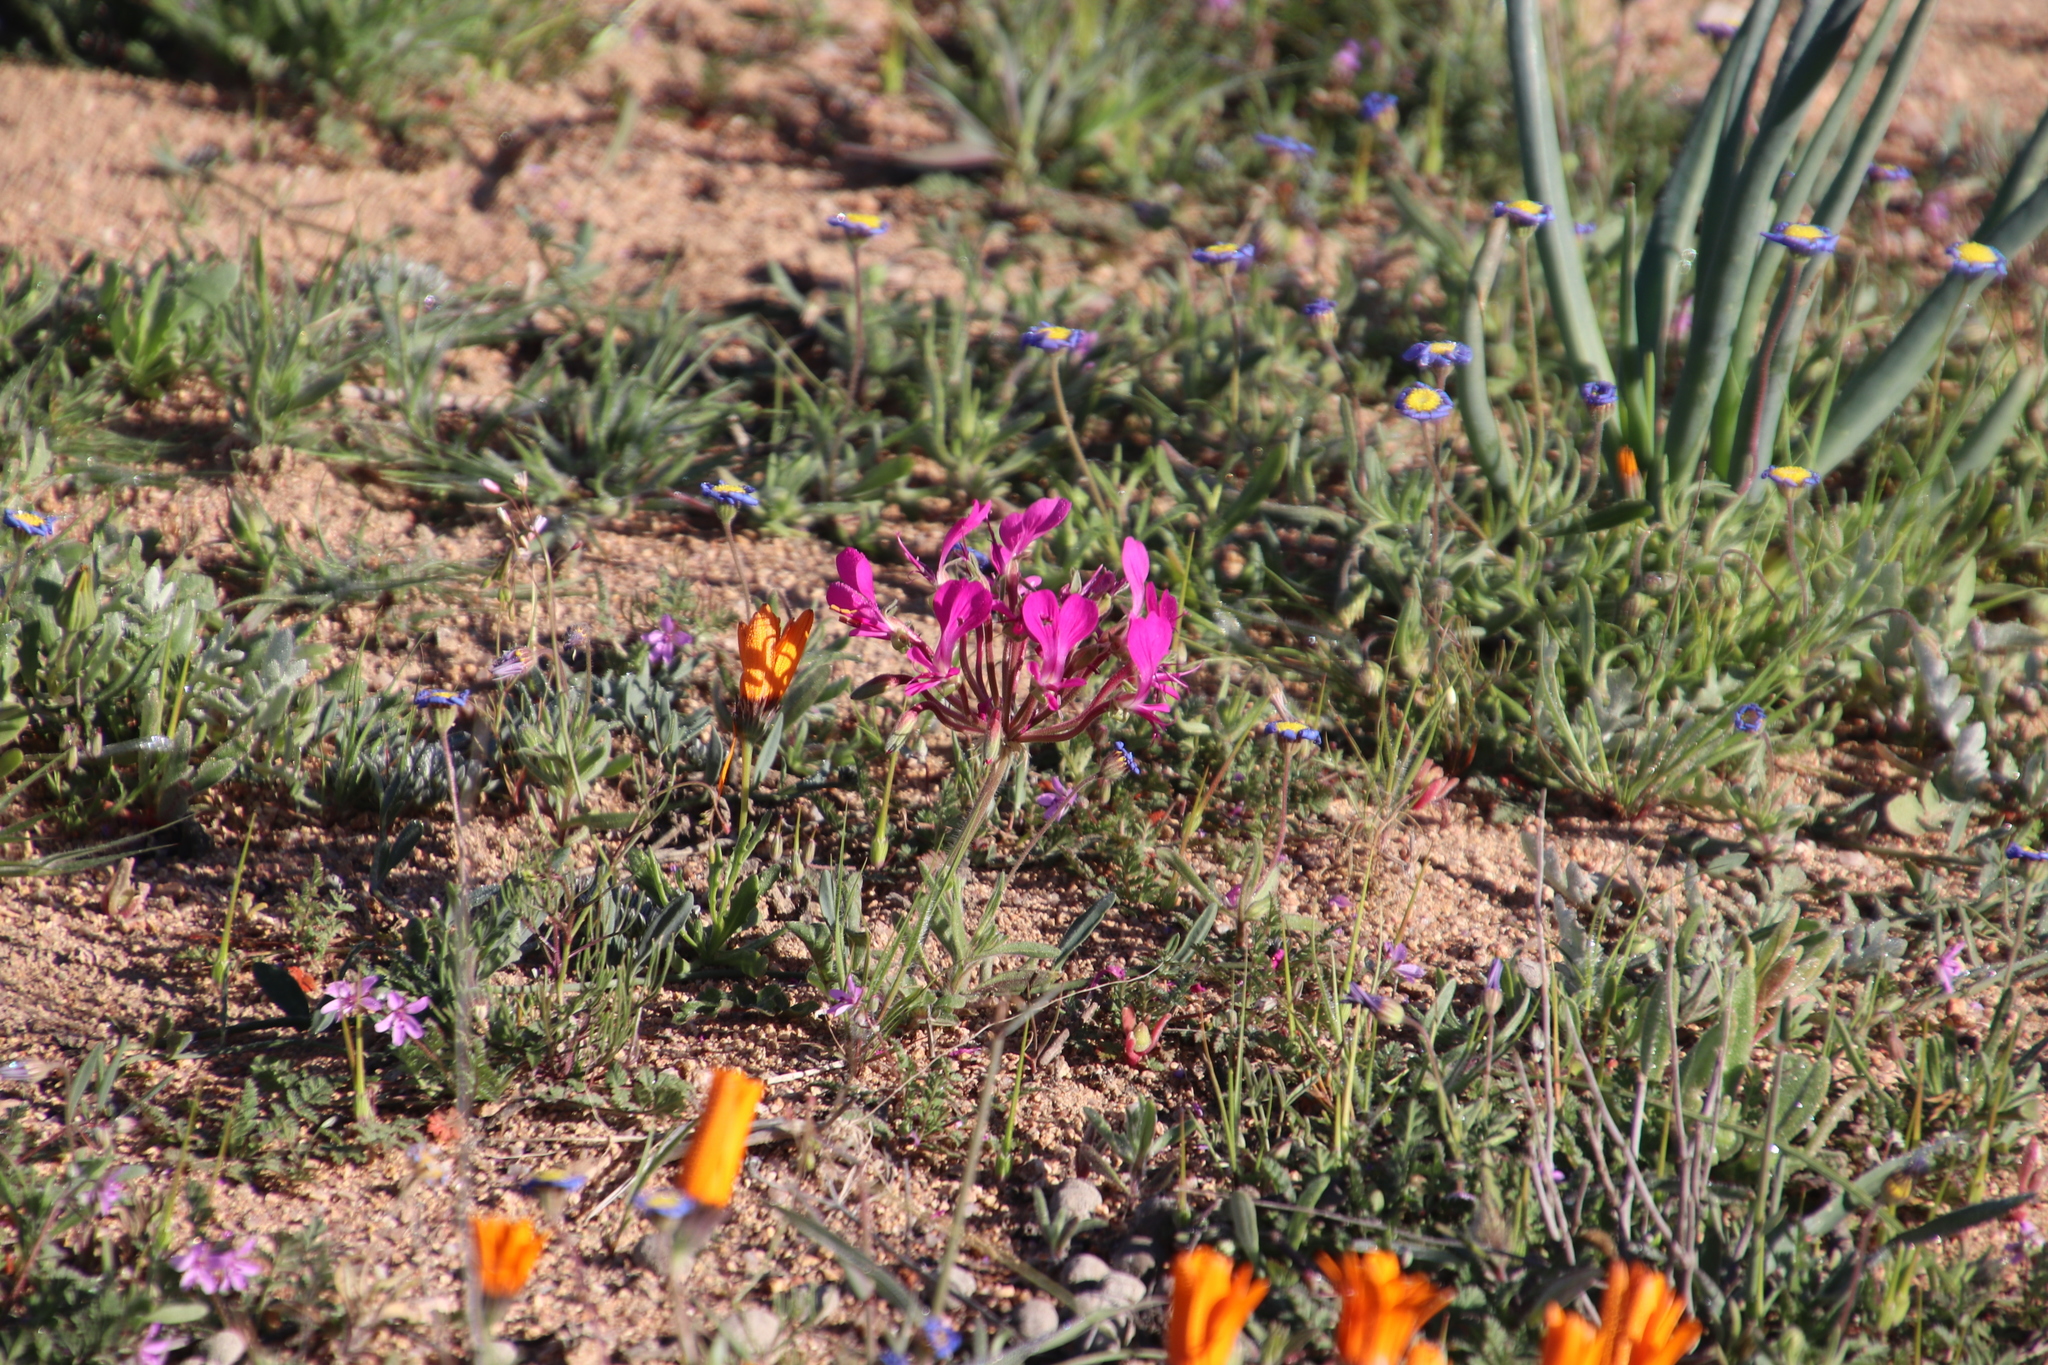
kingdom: Plantae
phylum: Tracheophyta
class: Magnoliopsida
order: Geraniales
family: Geraniaceae
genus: Pelargonium
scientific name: Pelargonium incrassatum
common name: Namaqualand beauty
